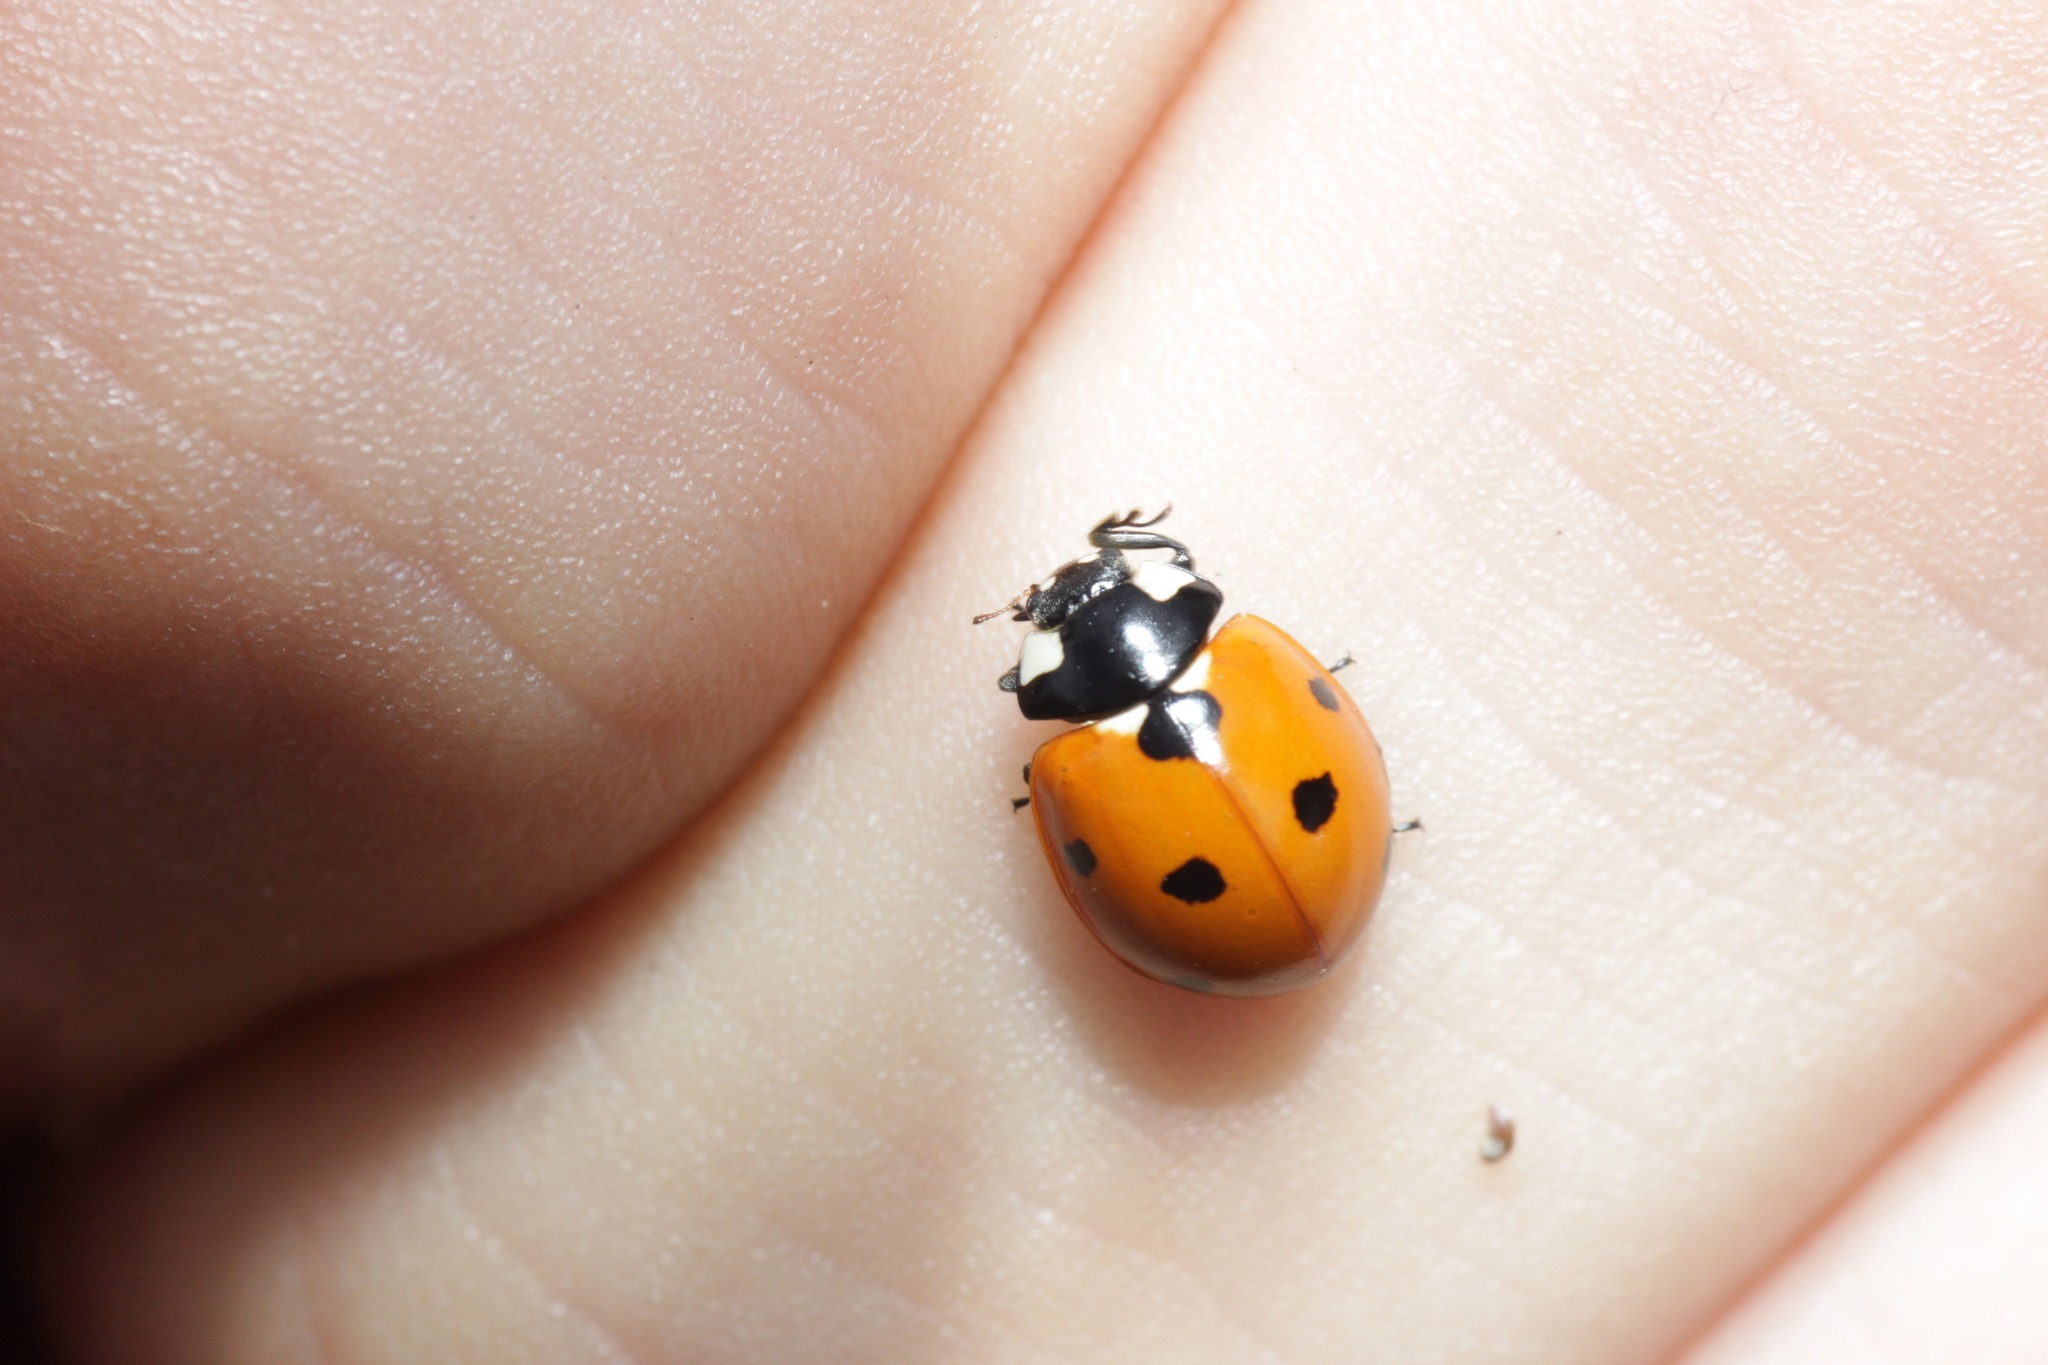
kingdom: Animalia
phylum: Arthropoda
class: Insecta
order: Coleoptera
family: Coccinellidae
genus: Coccinella
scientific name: Coccinella septempunctata
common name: Sevenspotted lady beetle
